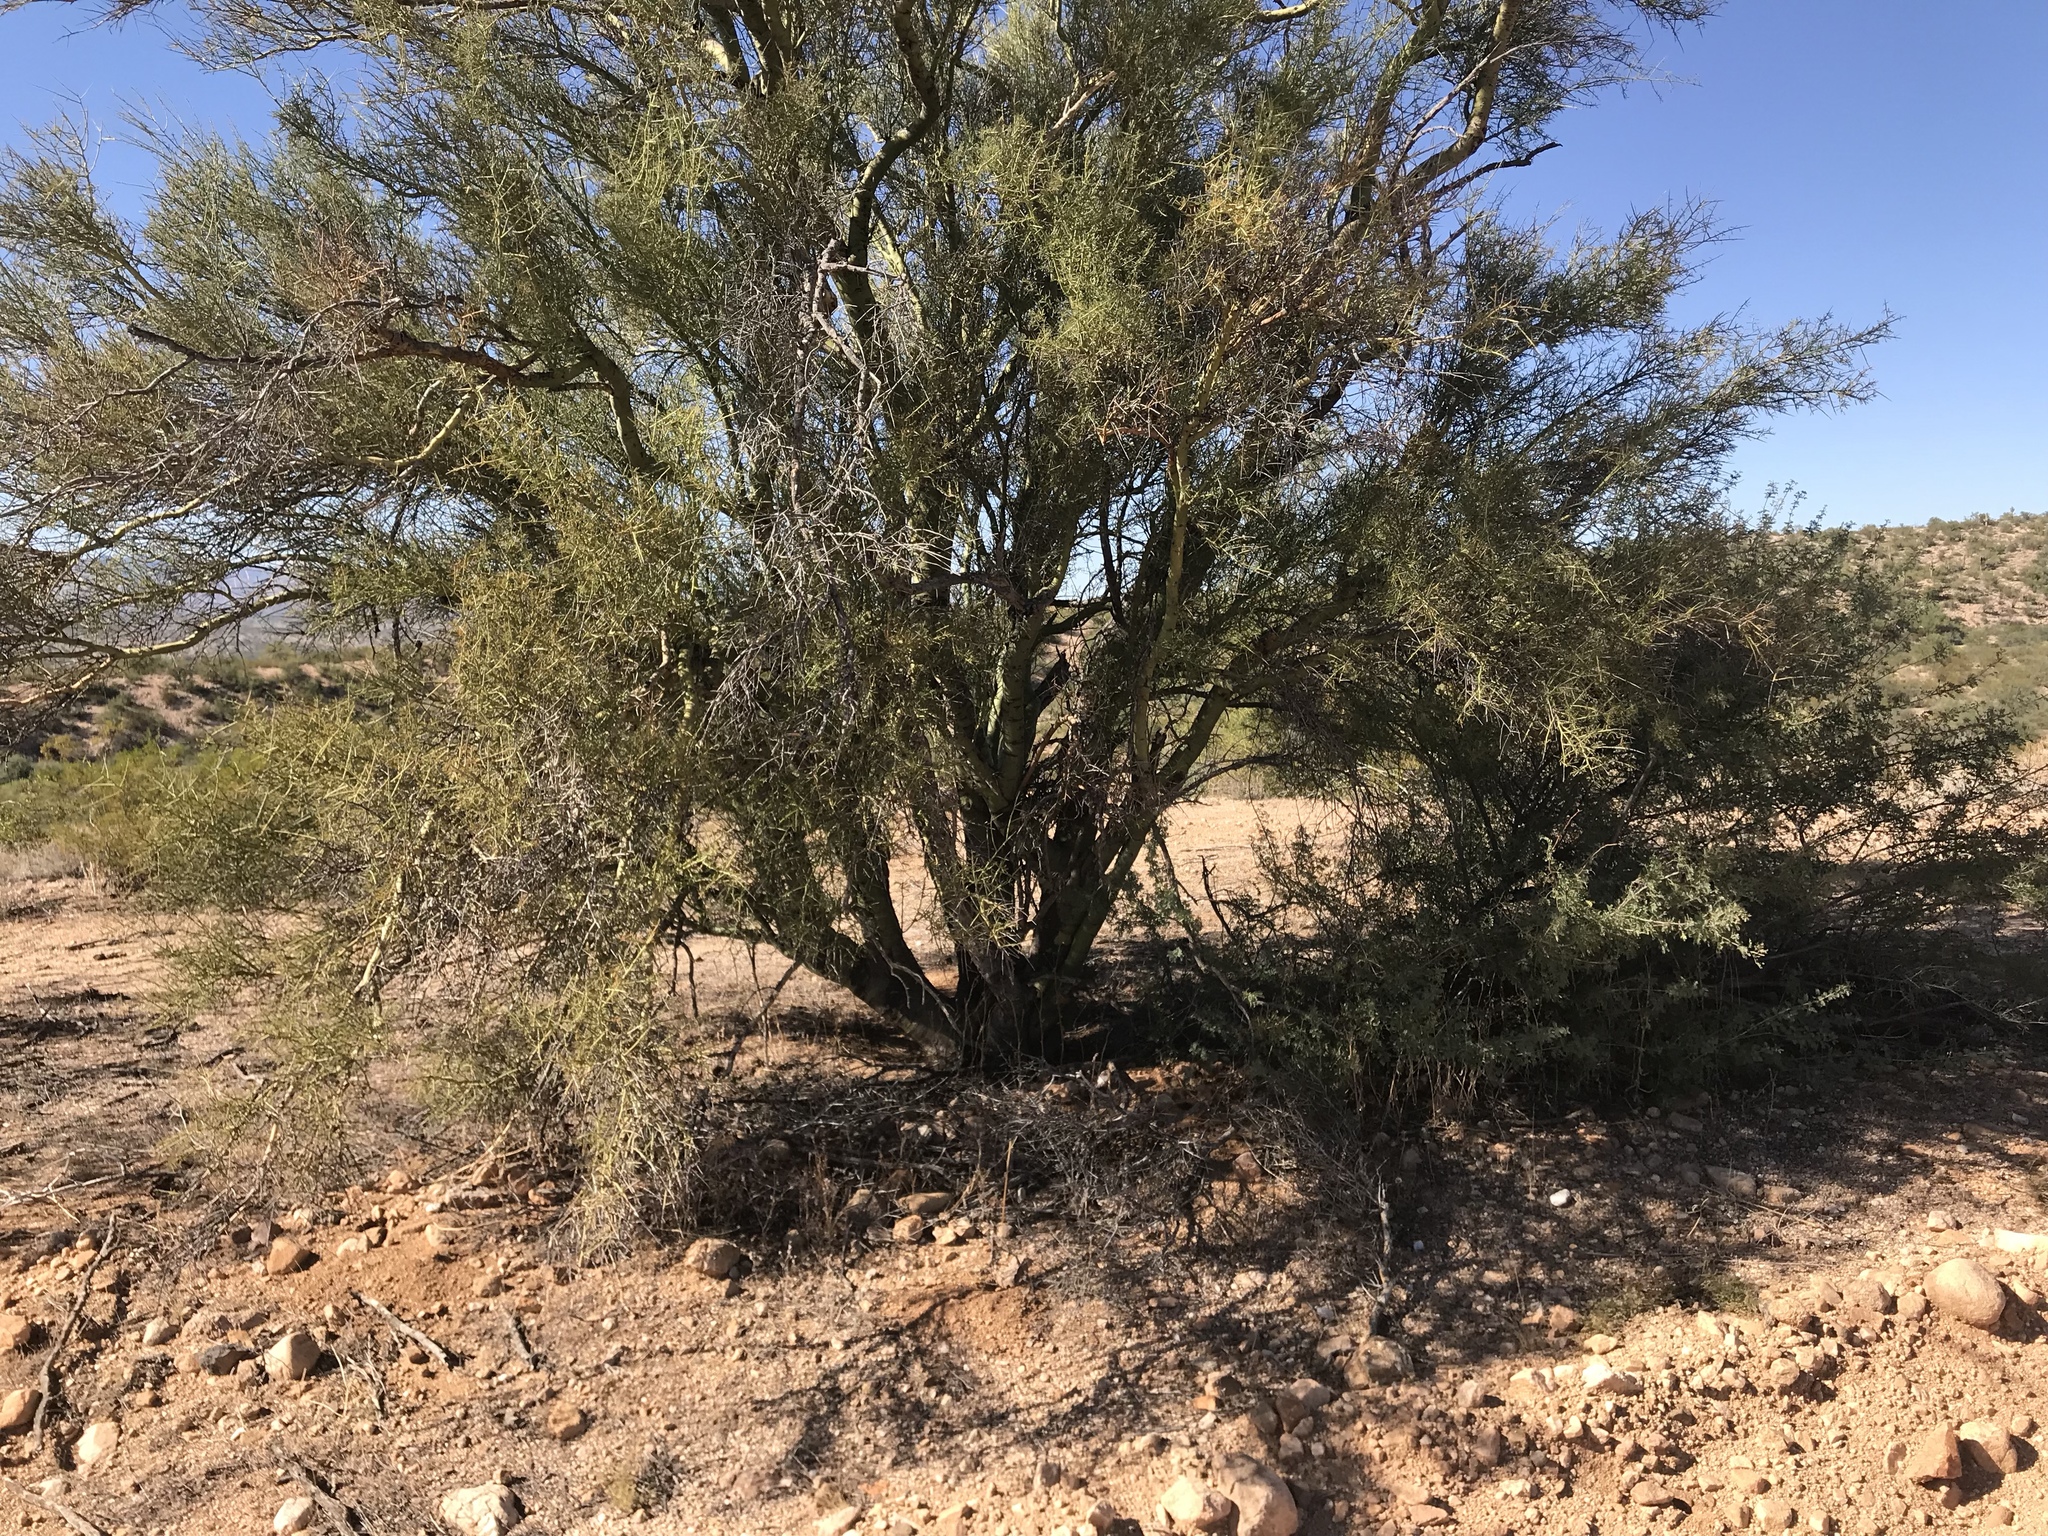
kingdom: Plantae
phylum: Tracheophyta
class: Magnoliopsida
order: Fabales
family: Fabaceae
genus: Parkinsonia
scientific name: Parkinsonia microphylla
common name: Yellow paloverde
